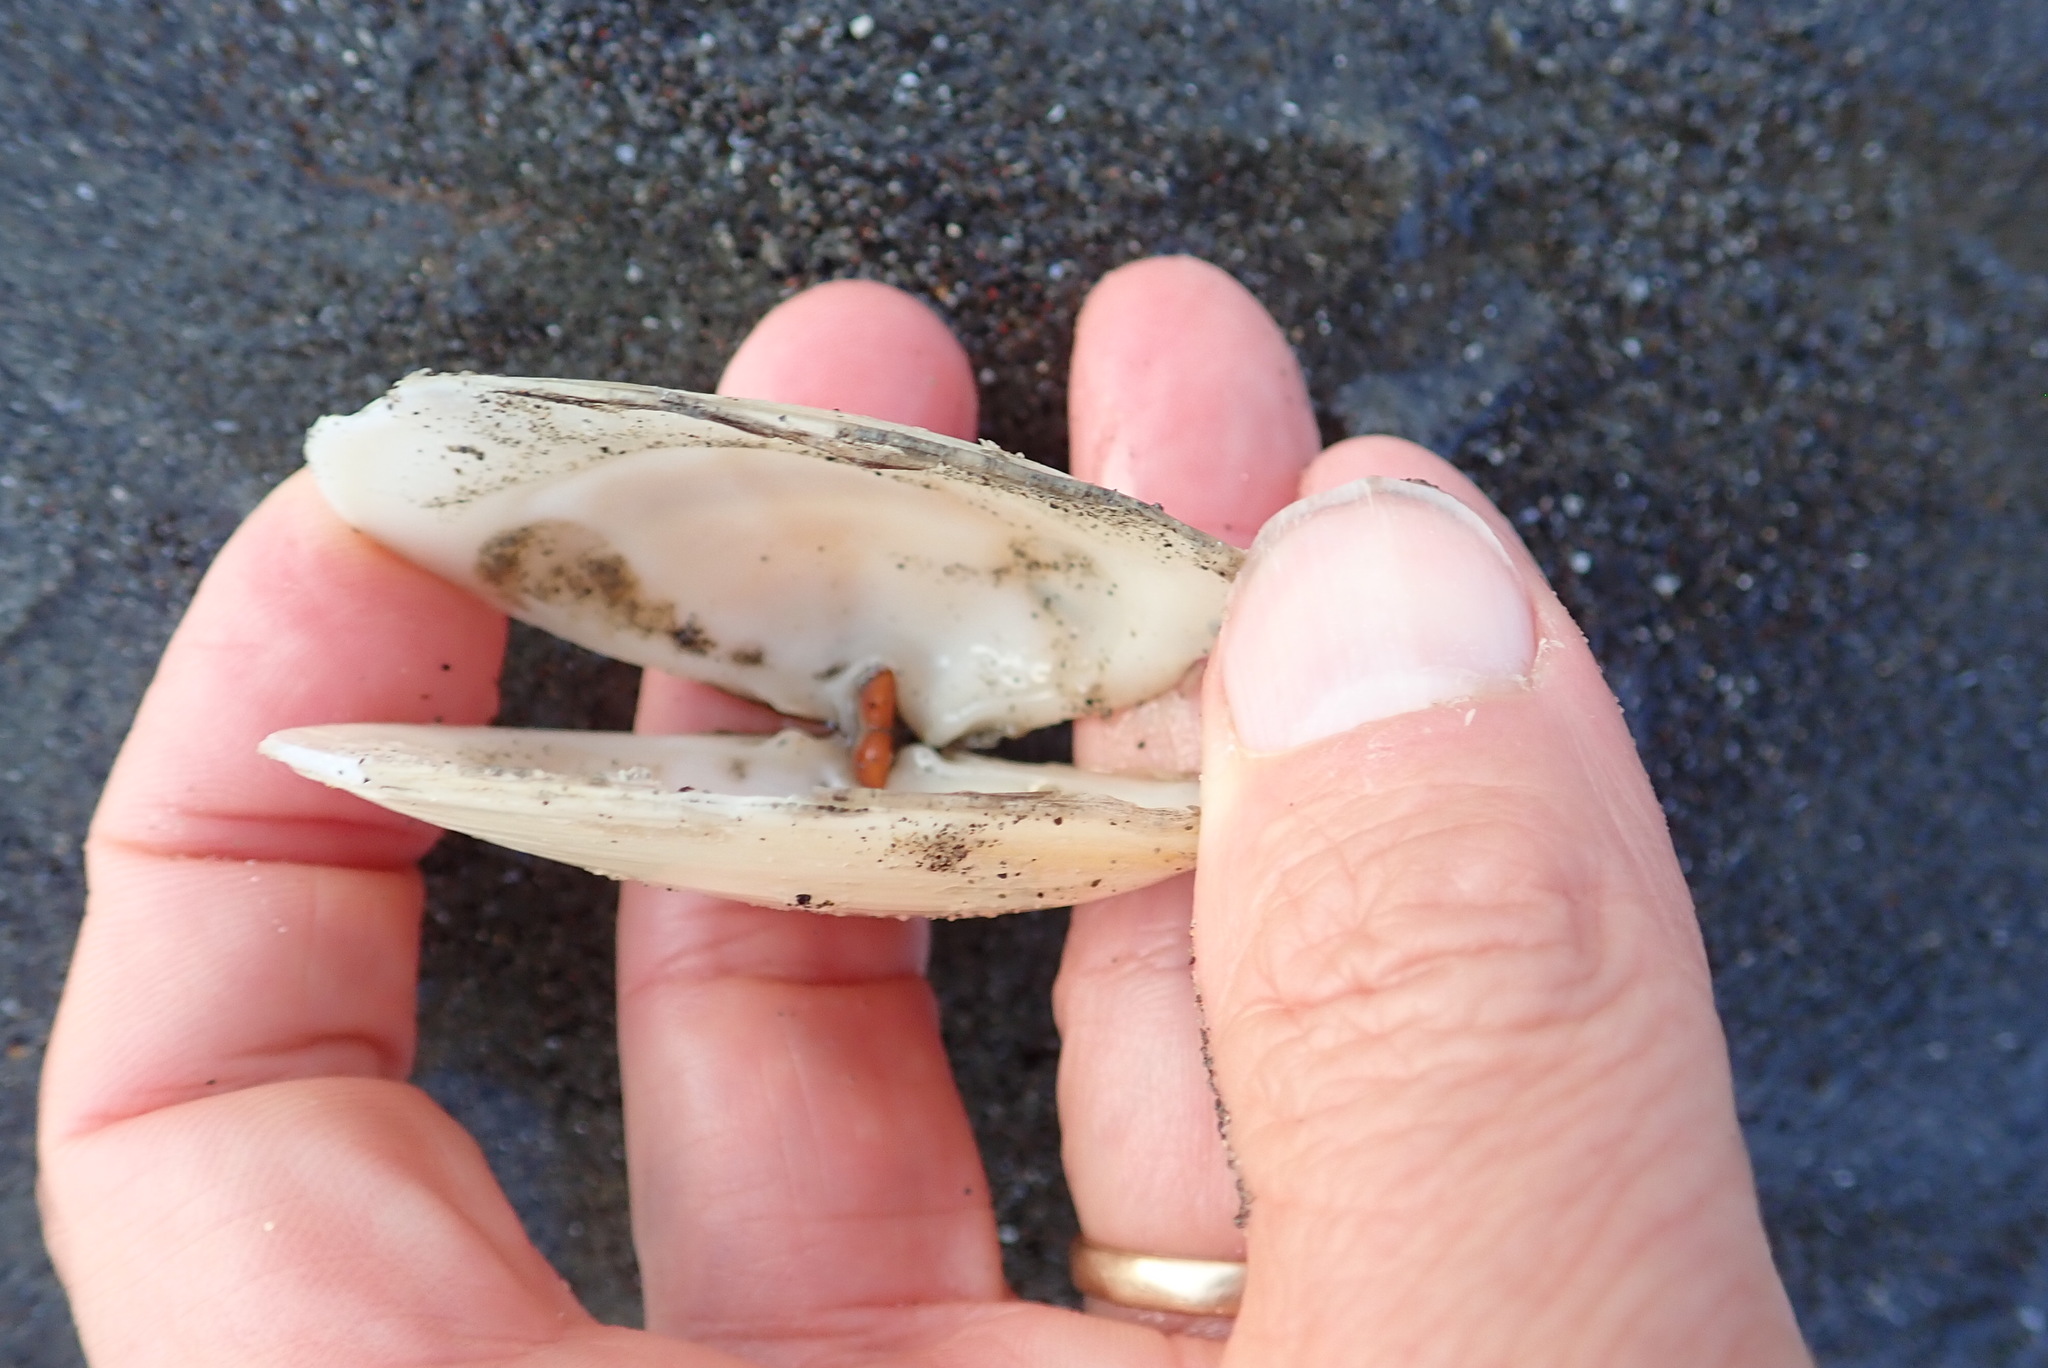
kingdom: Animalia
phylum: Mollusca
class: Bivalvia
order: Venerida
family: Mesodesmatidae
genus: Paphies
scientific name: Paphies donacina
